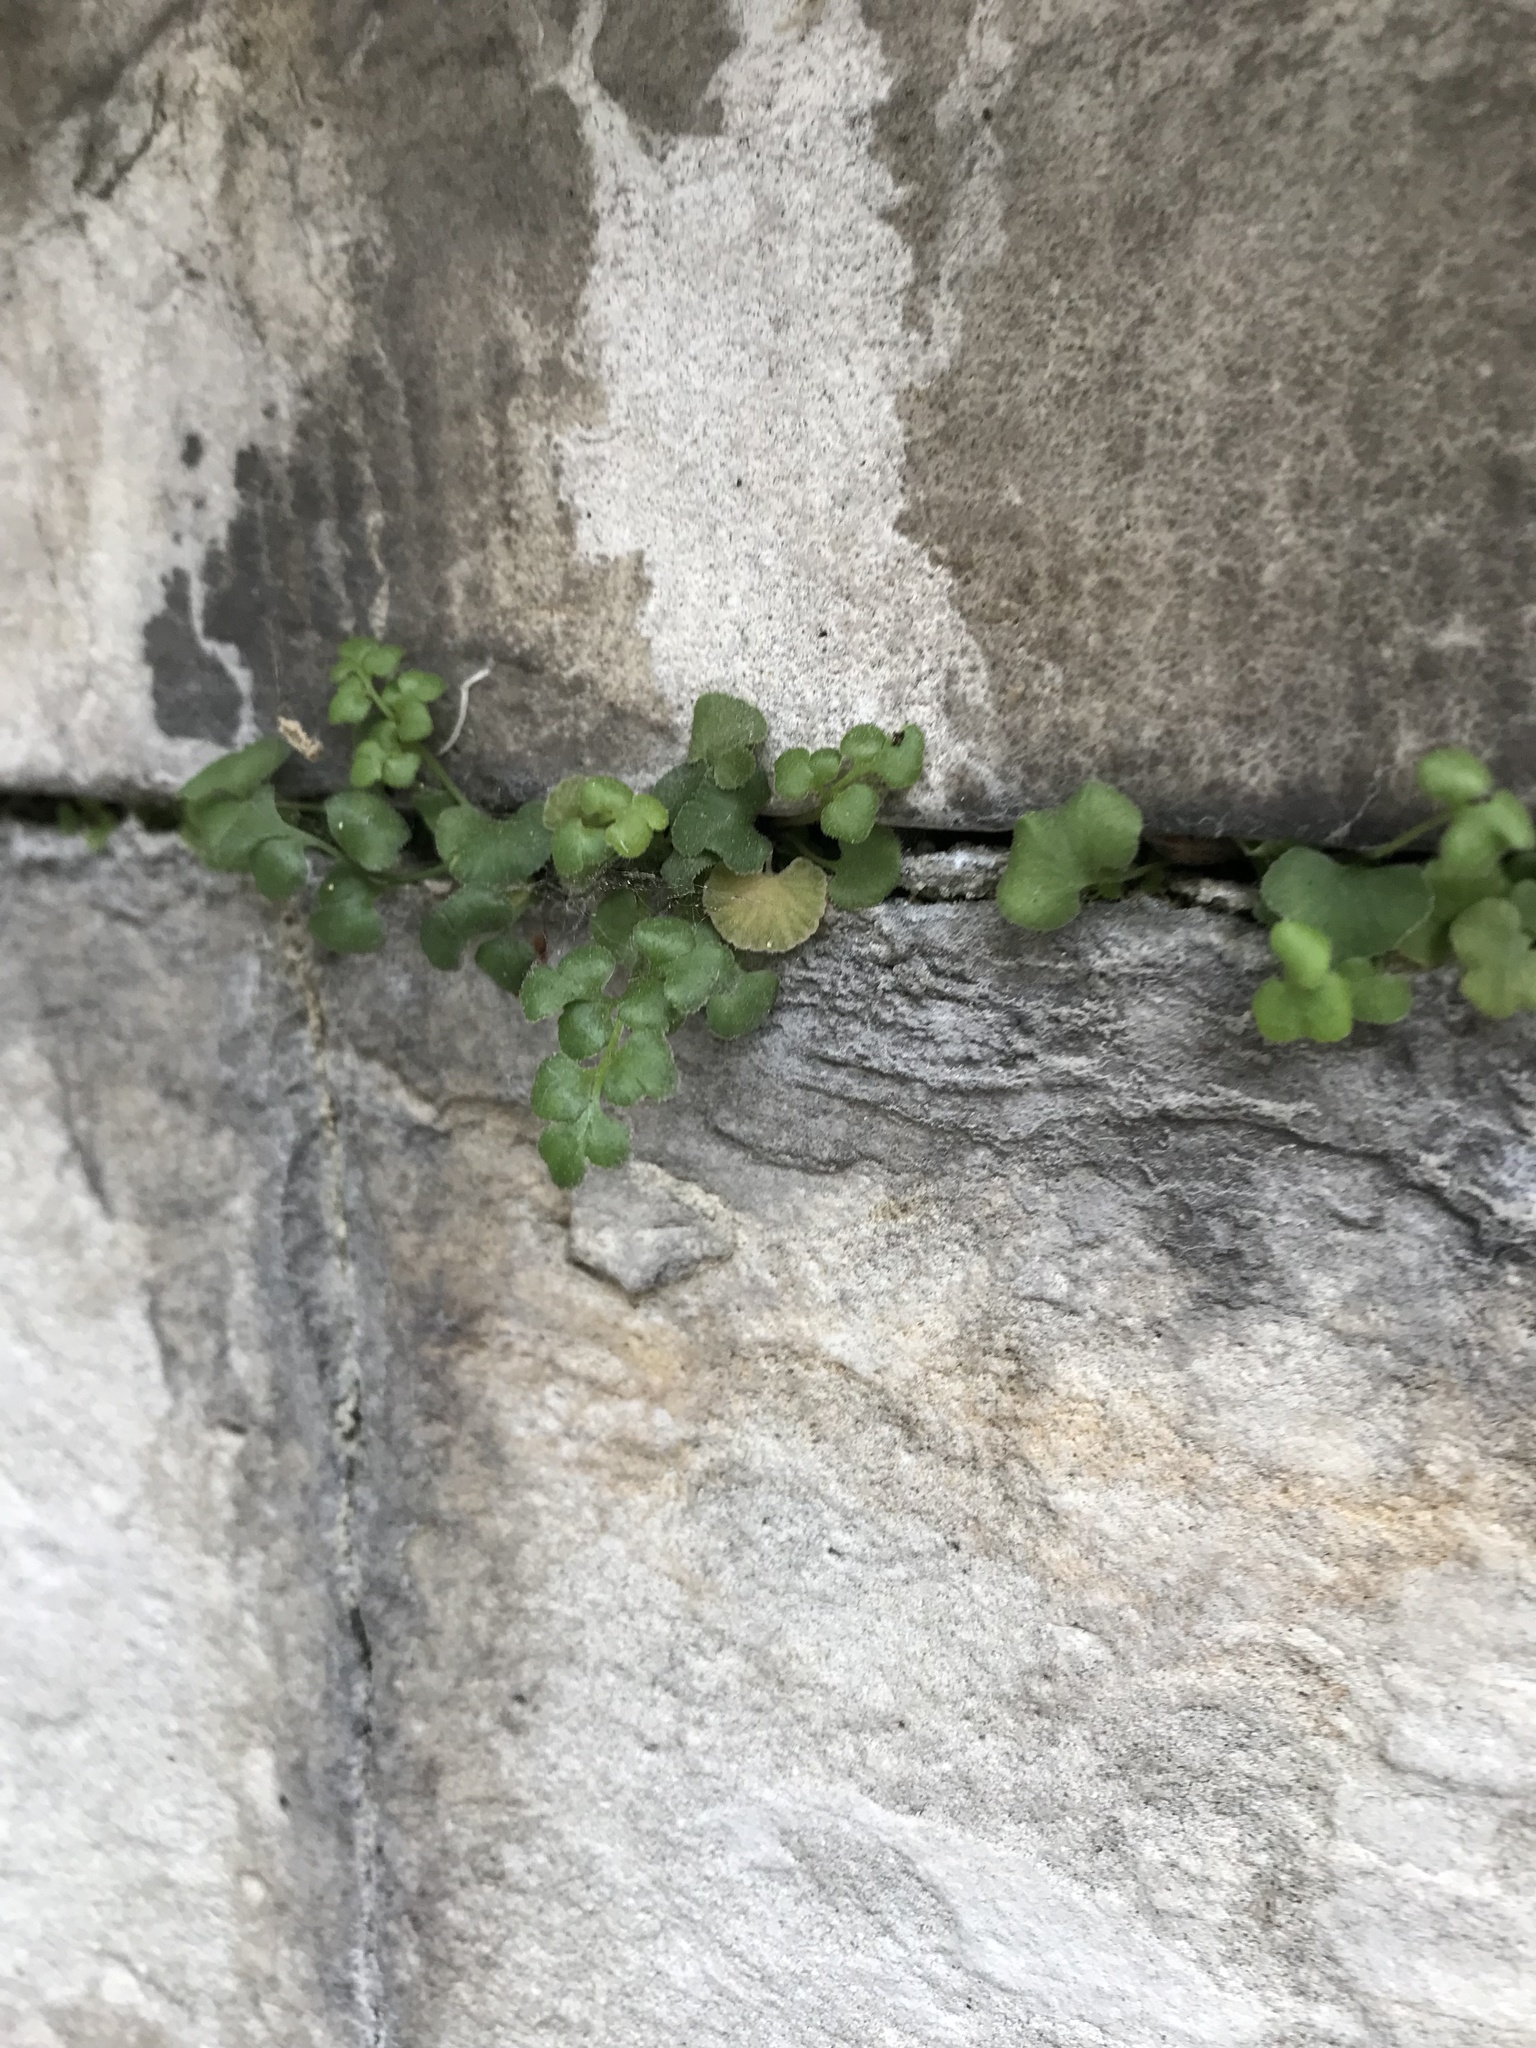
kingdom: Plantae
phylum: Tracheophyta
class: Polypodiopsida
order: Polypodiales
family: Aspleniaceae
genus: Asplenium
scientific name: Asplenium ruta-muraria
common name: Wall-rue
